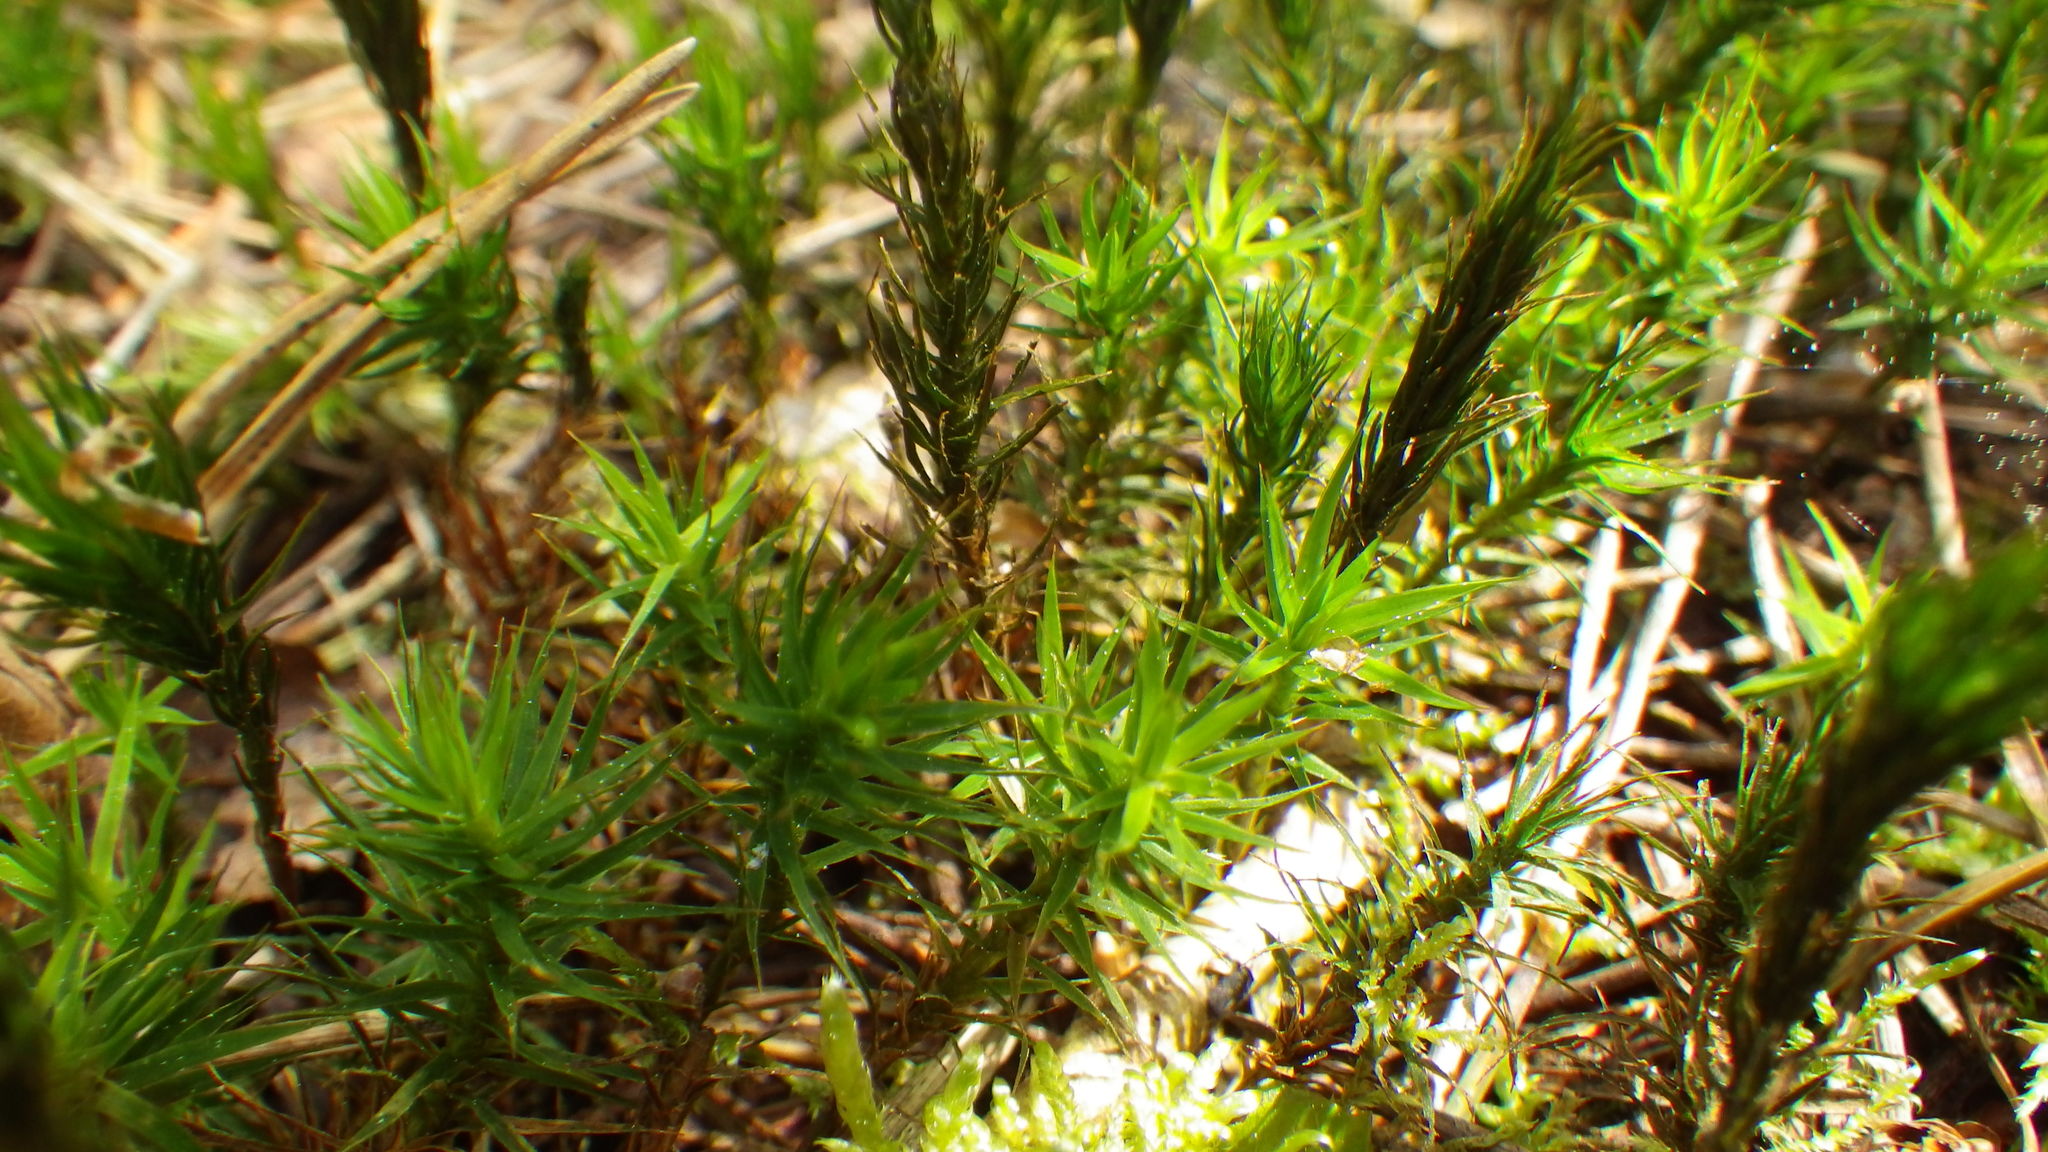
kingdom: Plantae
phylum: Bryophyta
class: Polytrichopsida
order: Polytrichales
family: Polytrichaceae
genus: Polytrichum
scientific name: Polytrichum formosum
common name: Bank haircap moss
